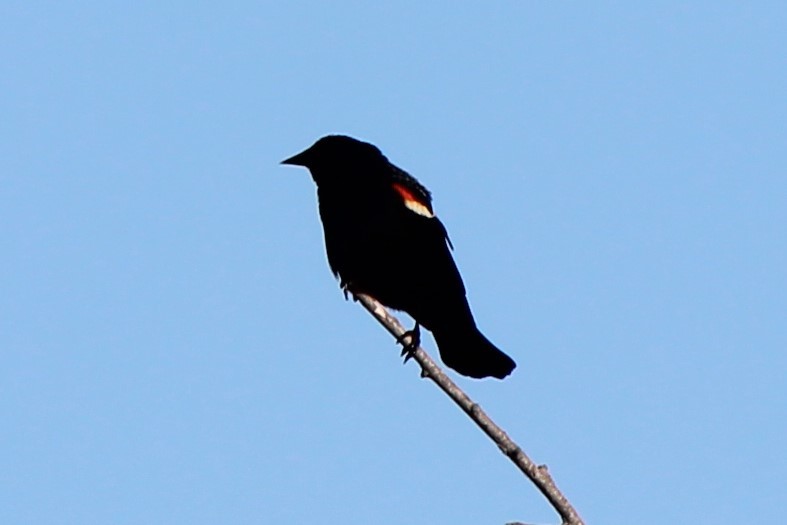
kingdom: Animalia
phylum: Chordata
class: Aves
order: Passeriformes
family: Icteridae
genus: Agelaius
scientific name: Agelaius phoeniceus
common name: Red-winged blackbird
